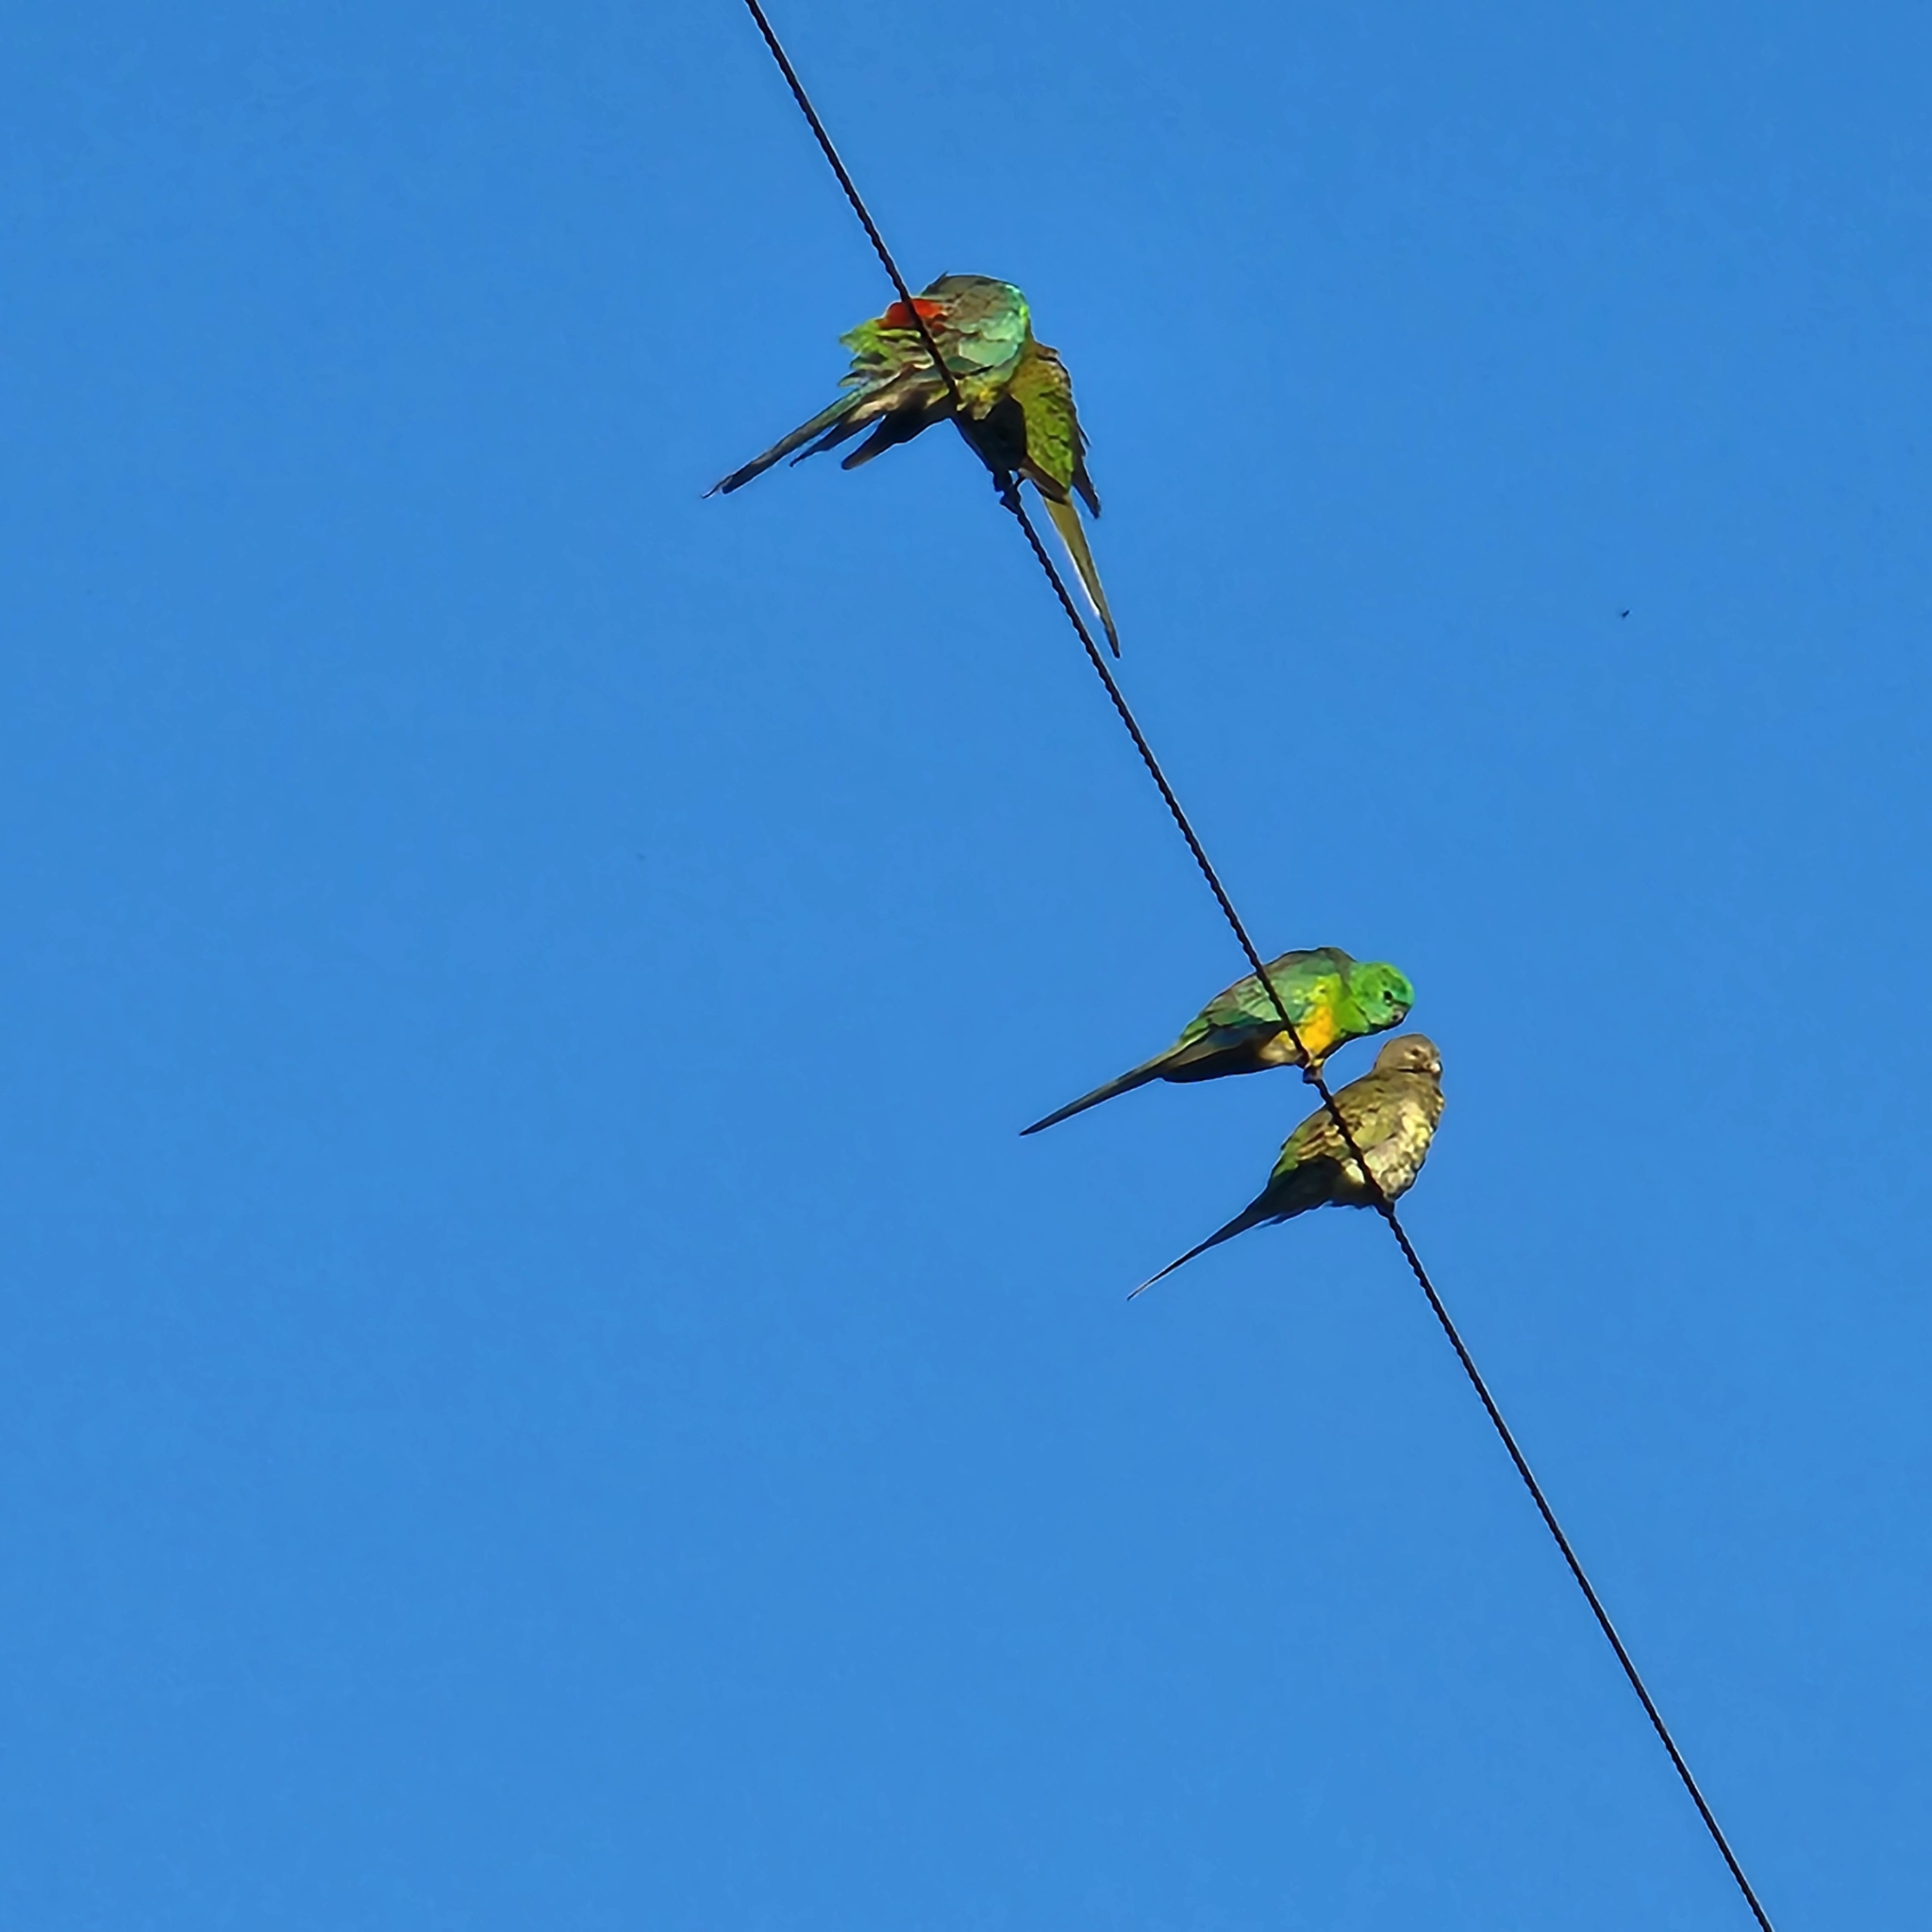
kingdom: Animalia
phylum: Chordata
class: Aves
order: Psittaciformes
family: Psittacidae
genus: Psephotus
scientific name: Psephotus haematonotus
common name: Red-rumped parrot
